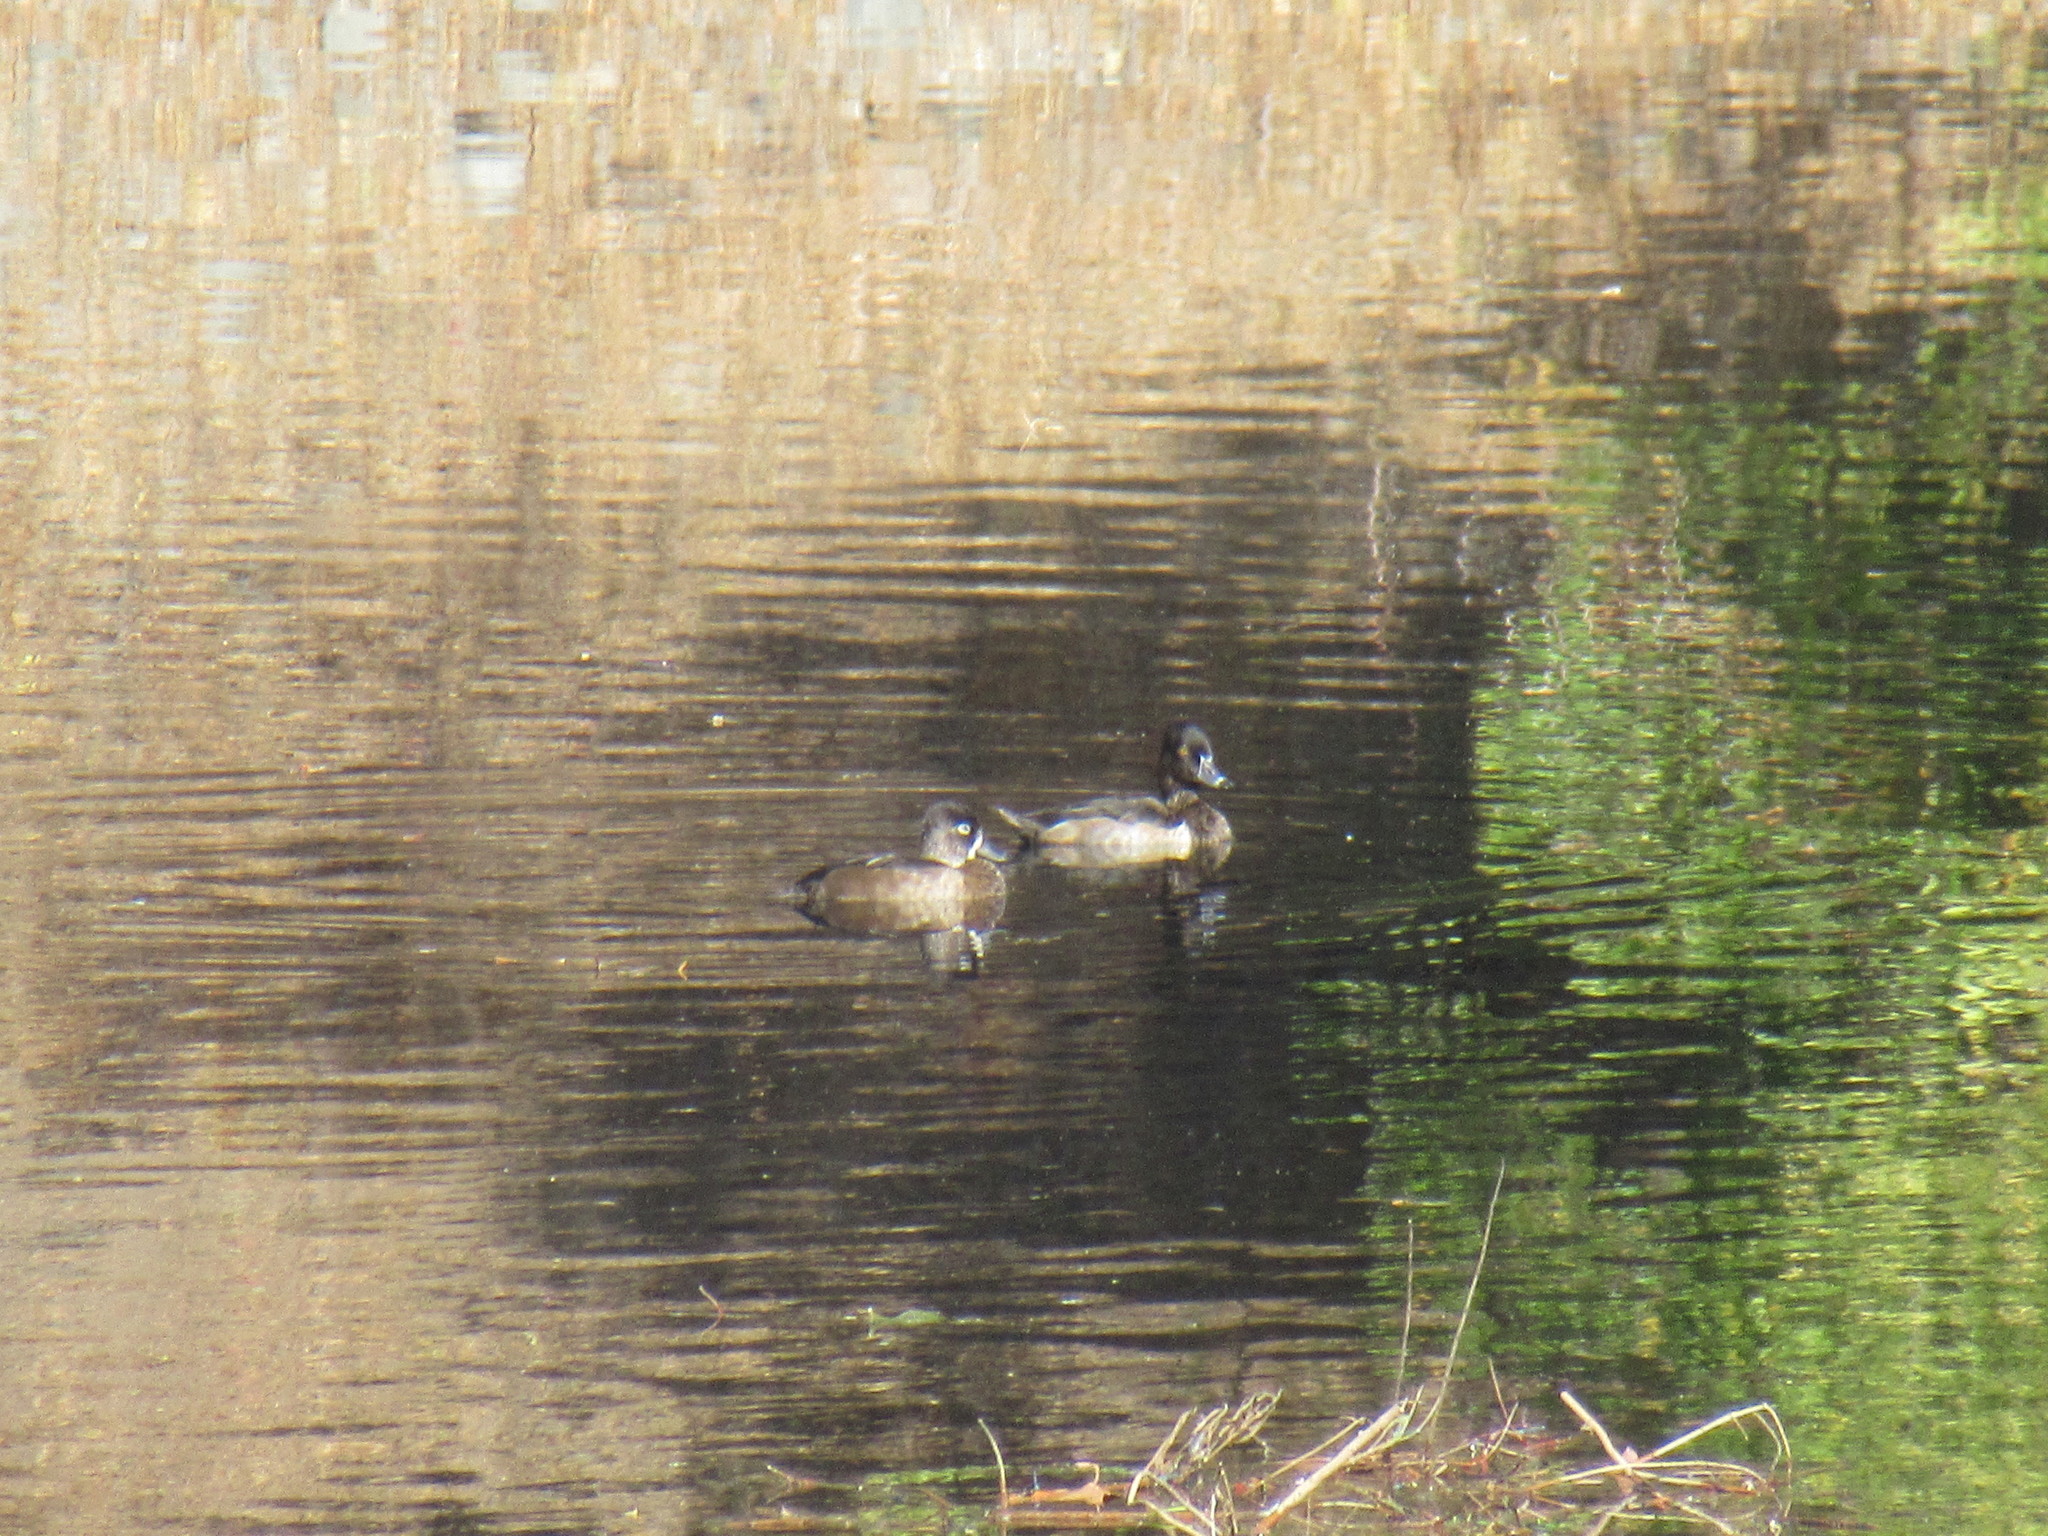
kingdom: Animalia
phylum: Chordata
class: Aves
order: Anseriformes
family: Anatidae
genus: Aythya
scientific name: Aythya collaris
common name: Ring-necked duck
